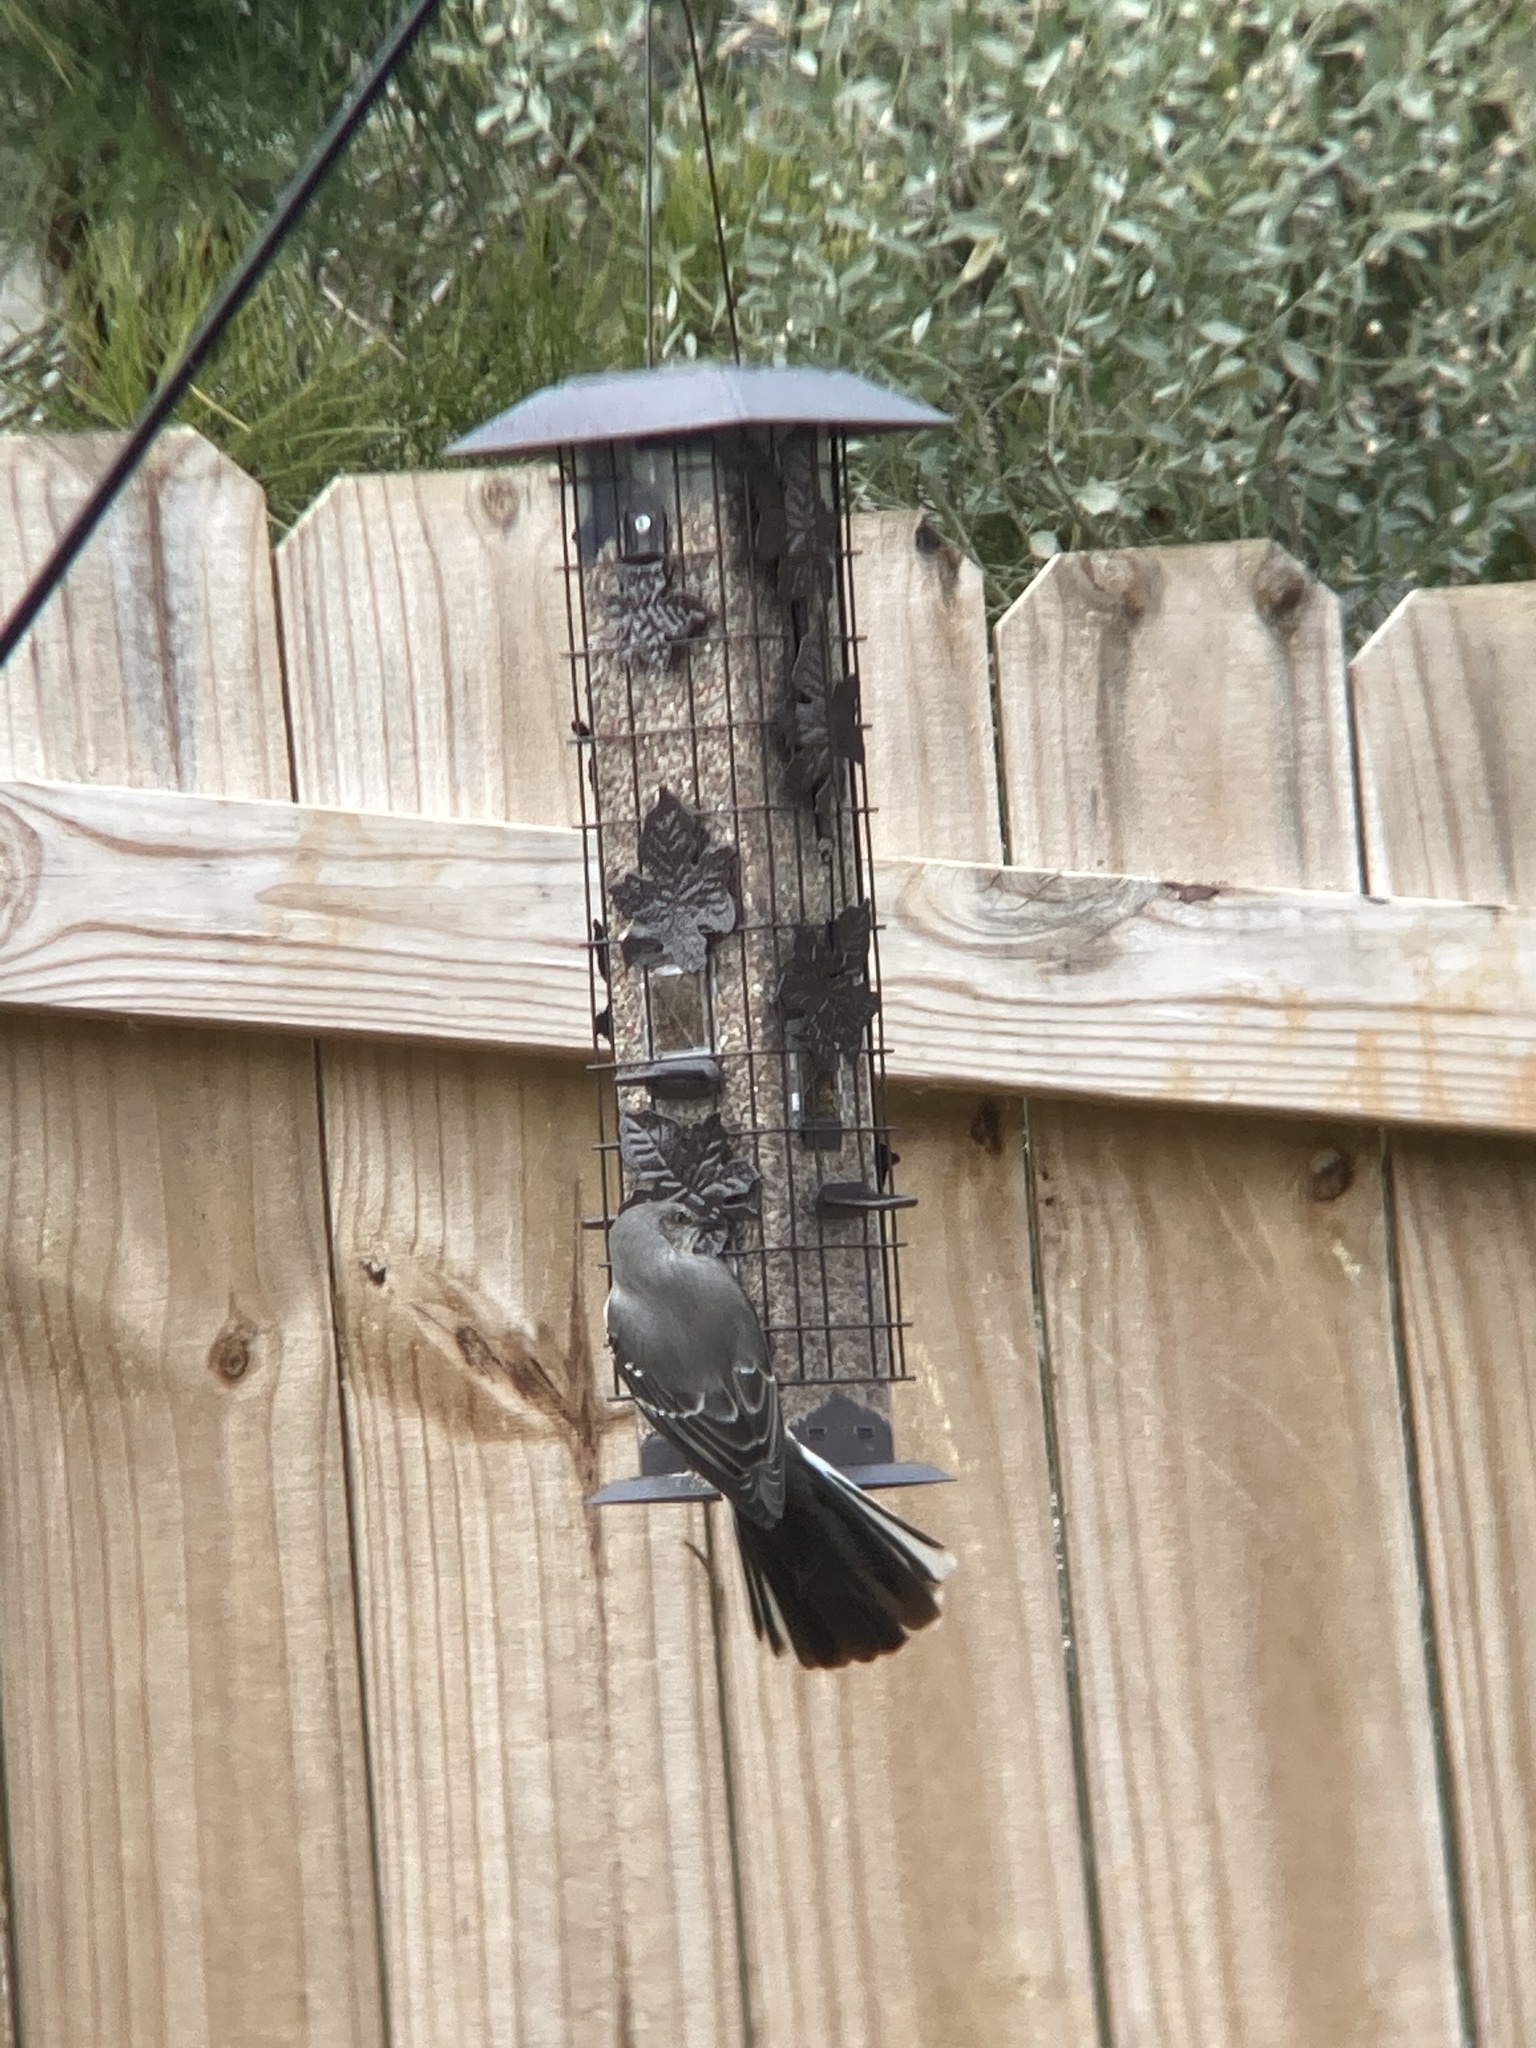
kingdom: Animalia
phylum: Chordata
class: Aves
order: Passeriformes
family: Mimidae
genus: Mimus
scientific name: Mimus polyglottos
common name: Northern mockingbird
